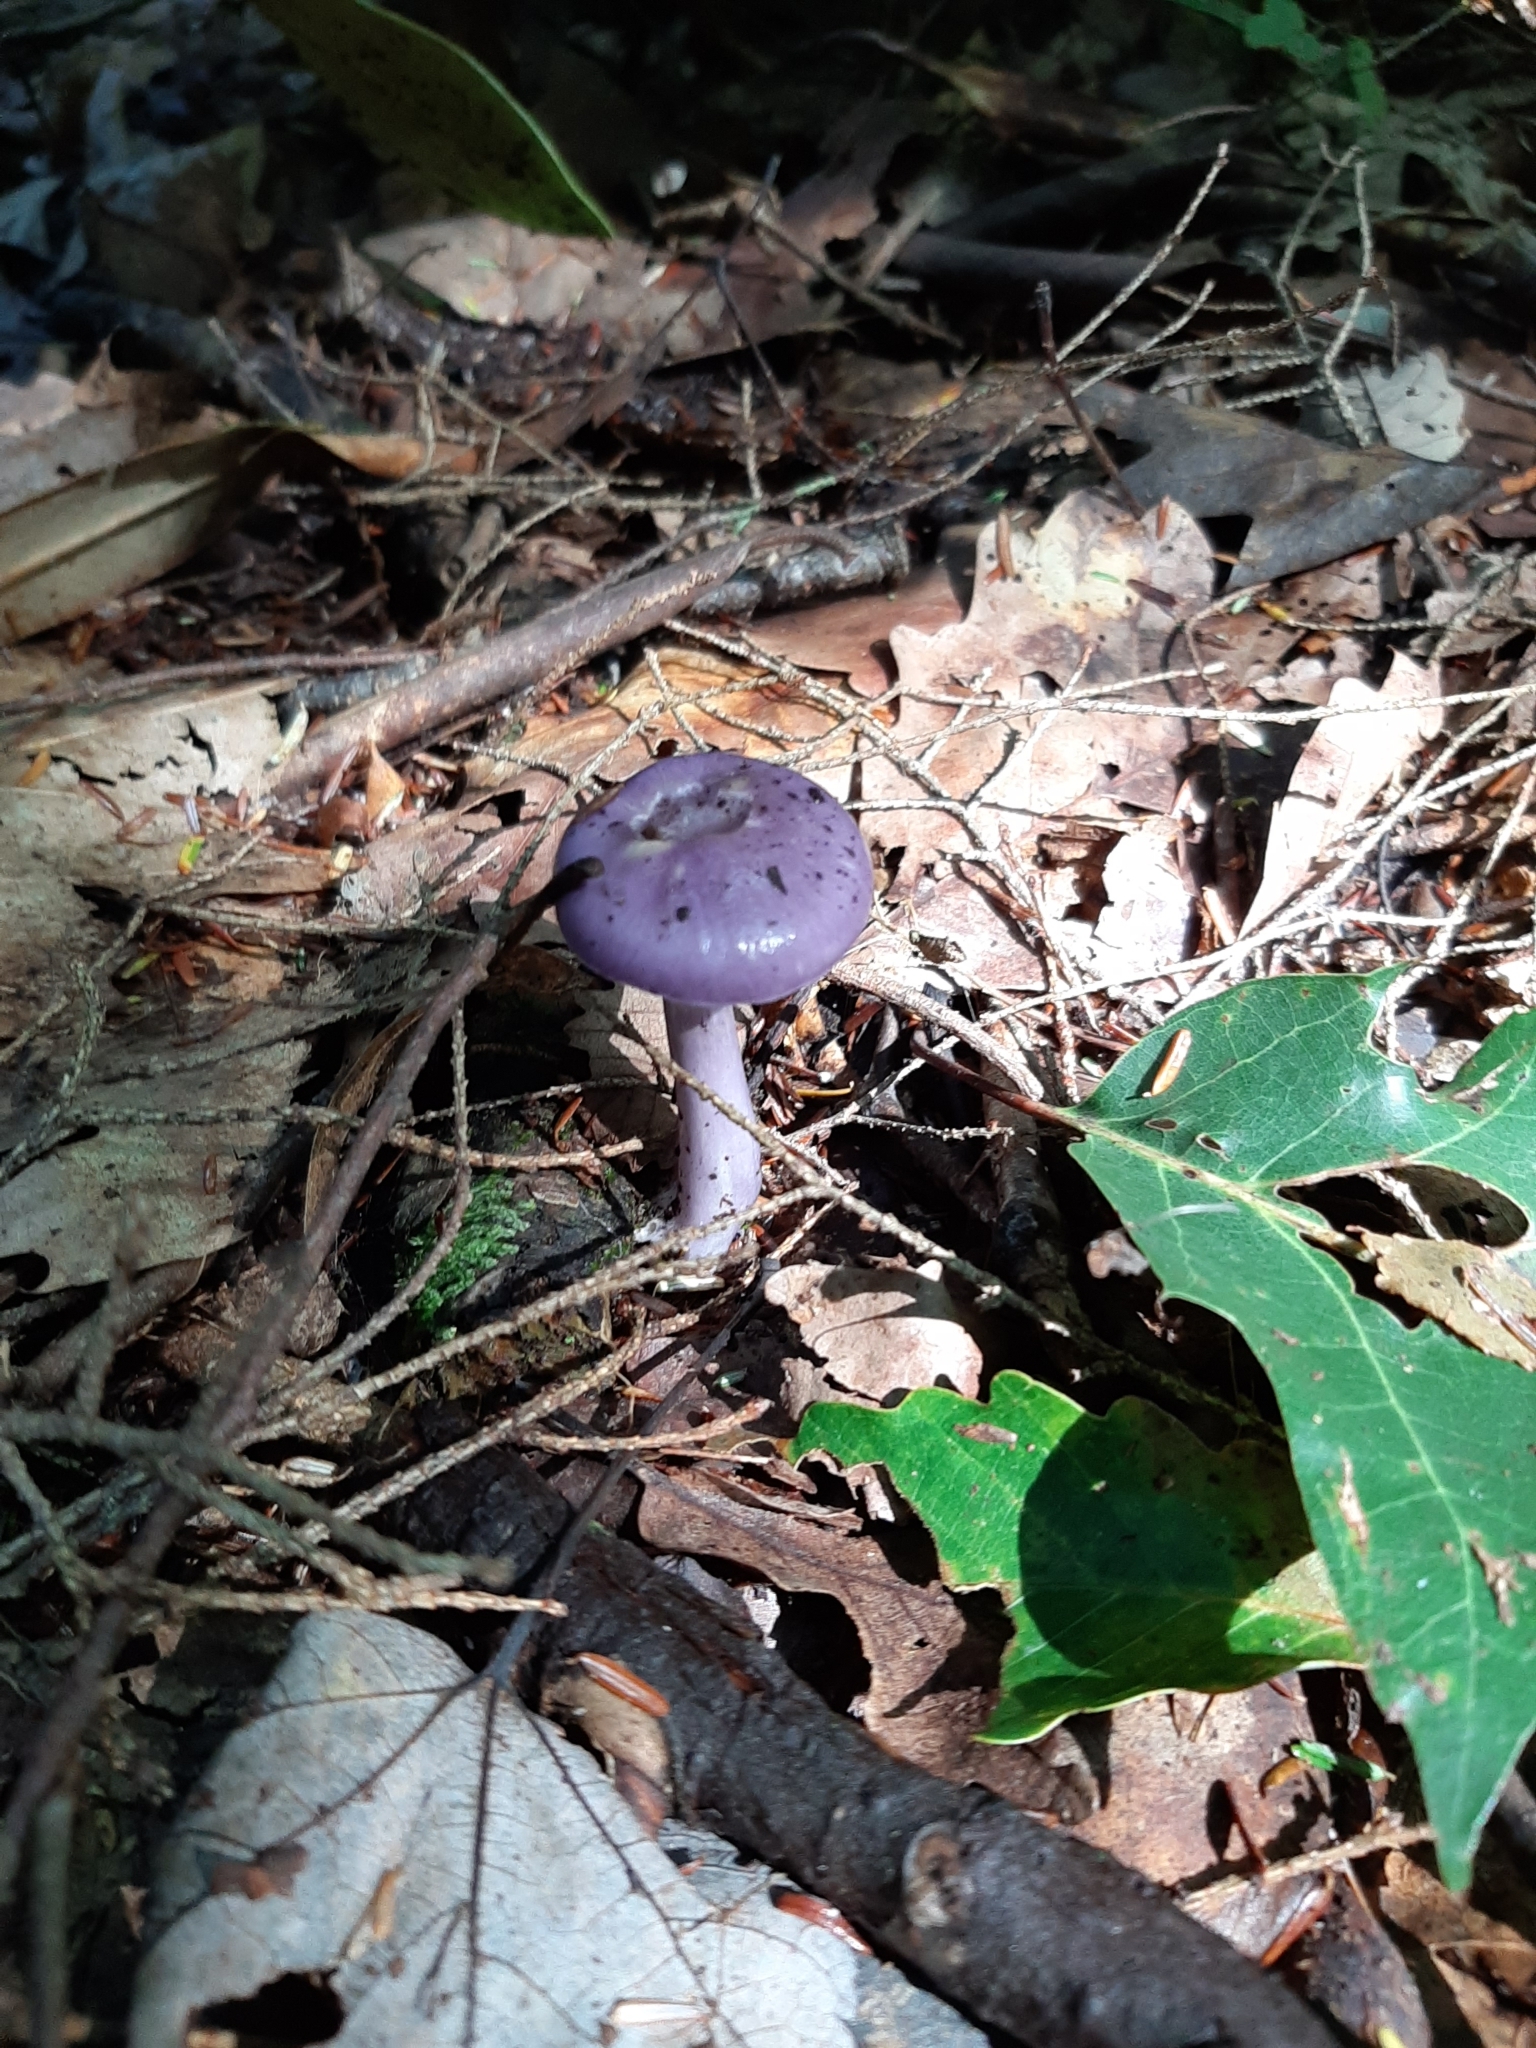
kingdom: Fungi
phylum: Basidiomycota
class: Agaricomycetes
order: Agaricales
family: Cortinariaceae
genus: Cortinarius
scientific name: Cortinarius iodes
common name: Viscid violet cort
